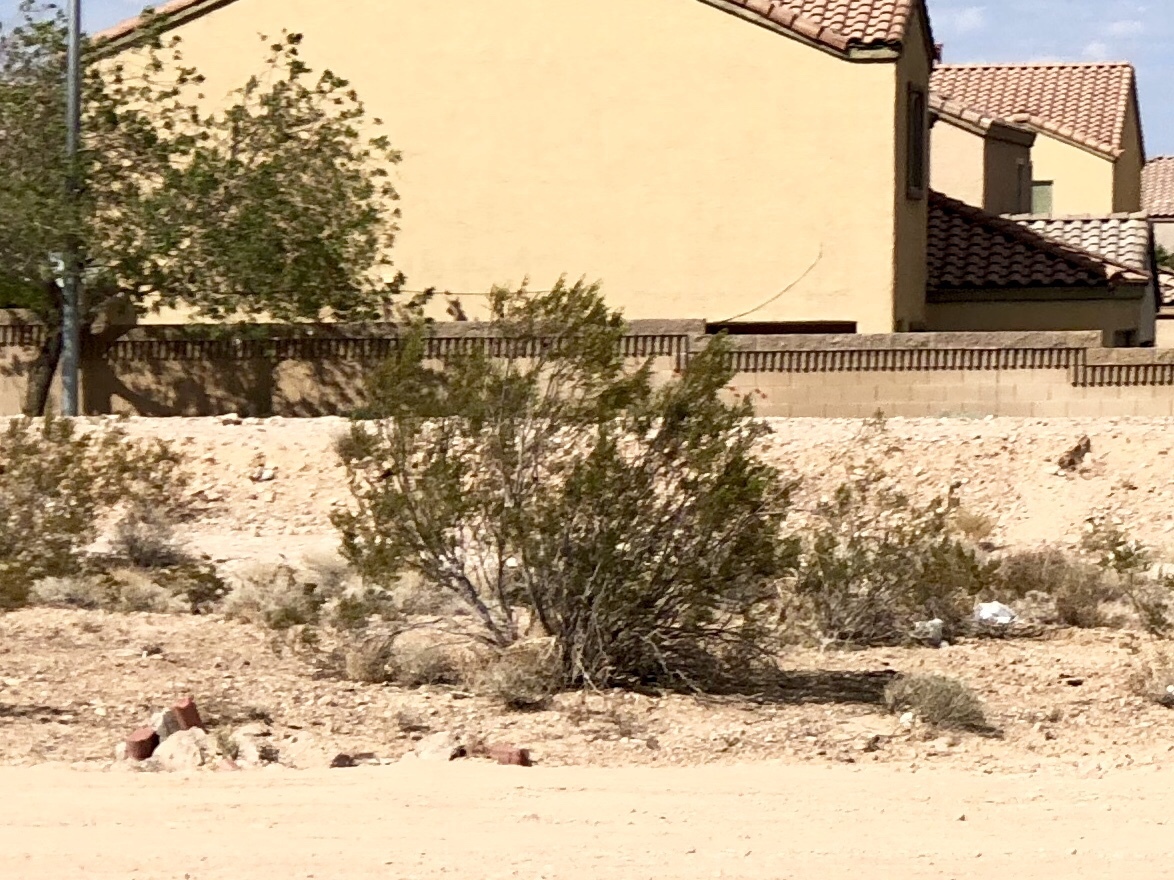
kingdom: Plantae
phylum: Tracheophyta
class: Magnoliopsida
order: Zygophyllales
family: Zygophyllaceae
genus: Larrea
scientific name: Larrea tridentata
